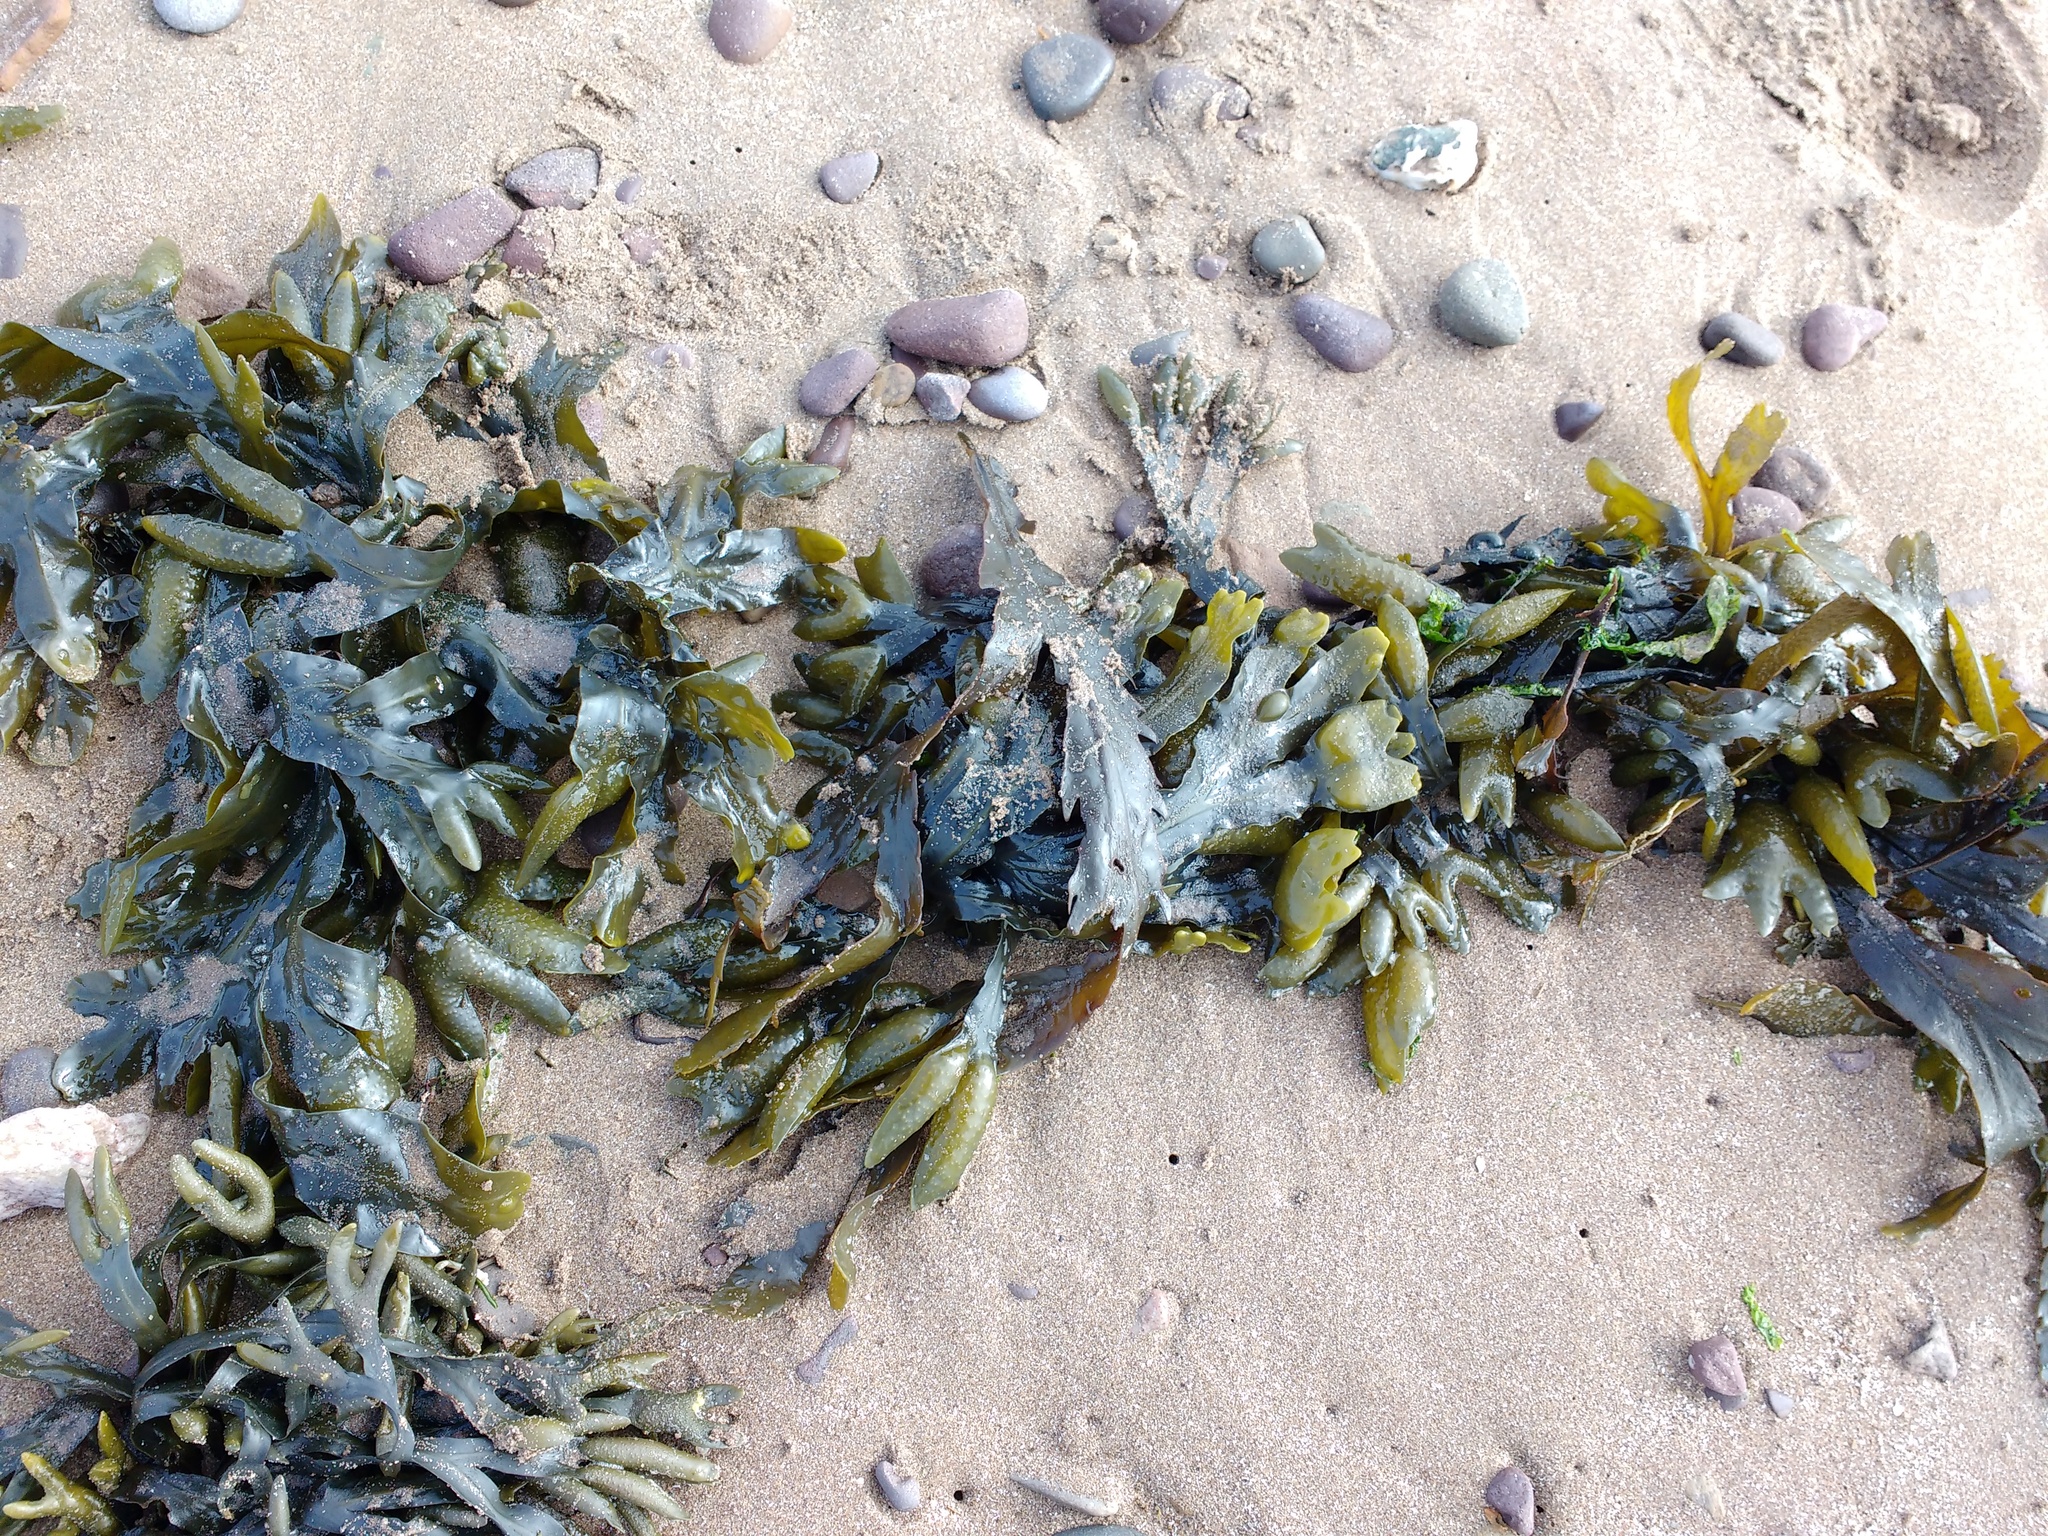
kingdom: Chromista
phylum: Ochrophyta
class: Phaeophyceae
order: Fucales
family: Fucaceae
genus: Fucus
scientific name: Fucus serratus
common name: Toothed wrack
